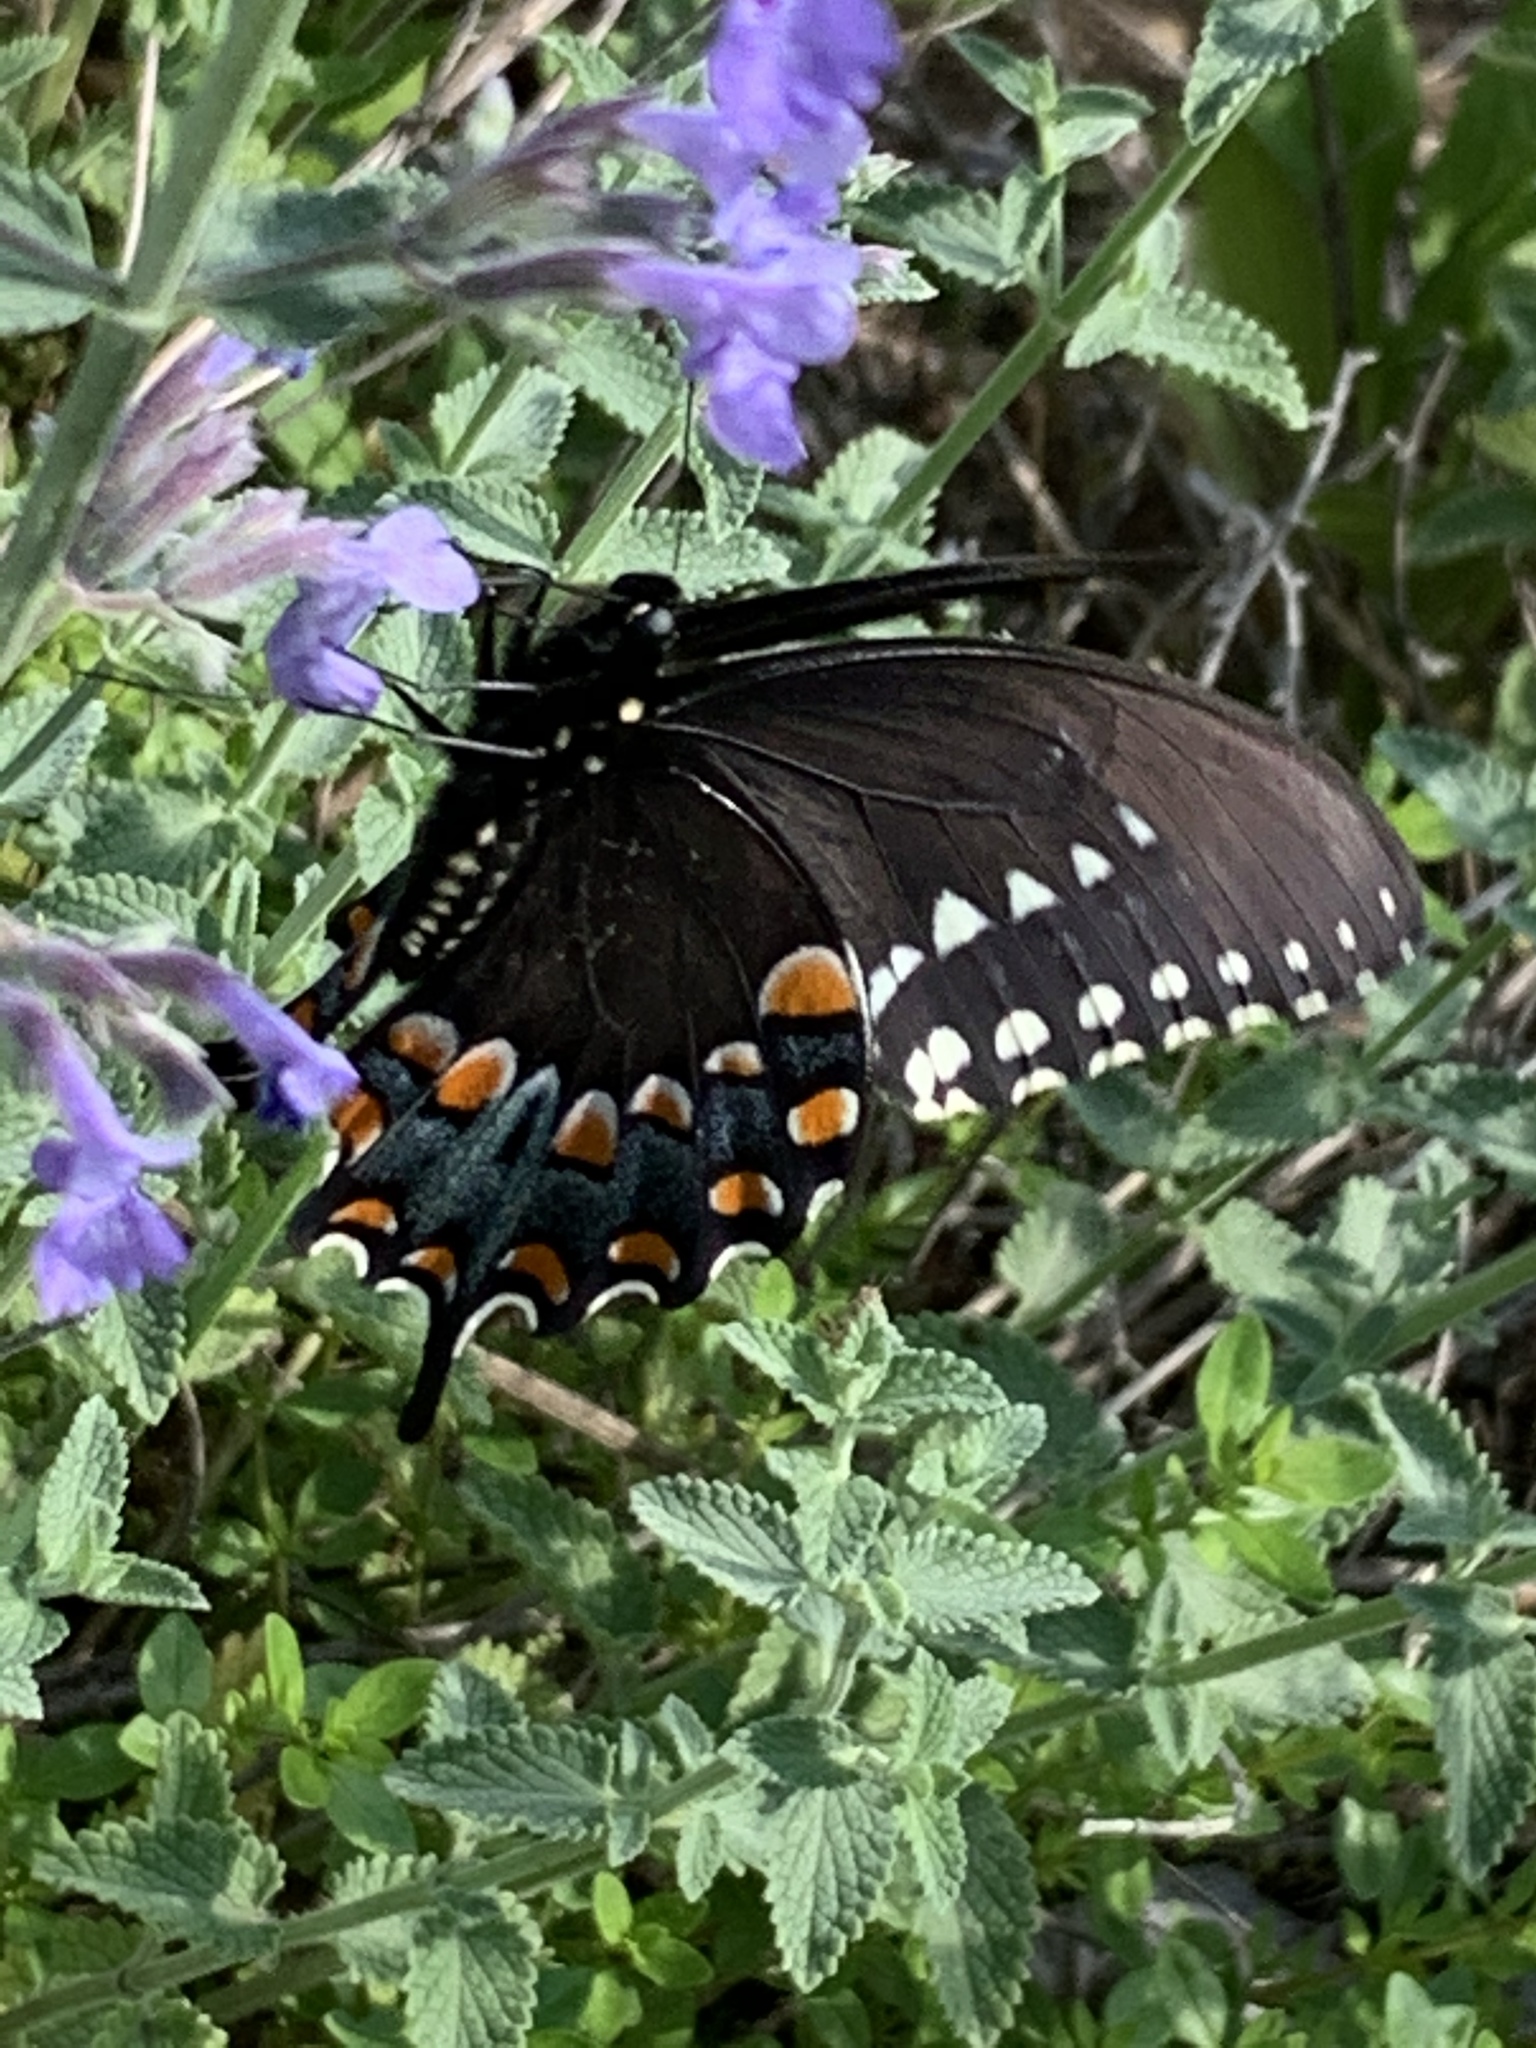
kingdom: Animalia
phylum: Arthropoda
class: Insecta
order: Lepidoptera
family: Papilionidae
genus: Papilio
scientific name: Papilio troilus
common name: Spicebush swallowtail
